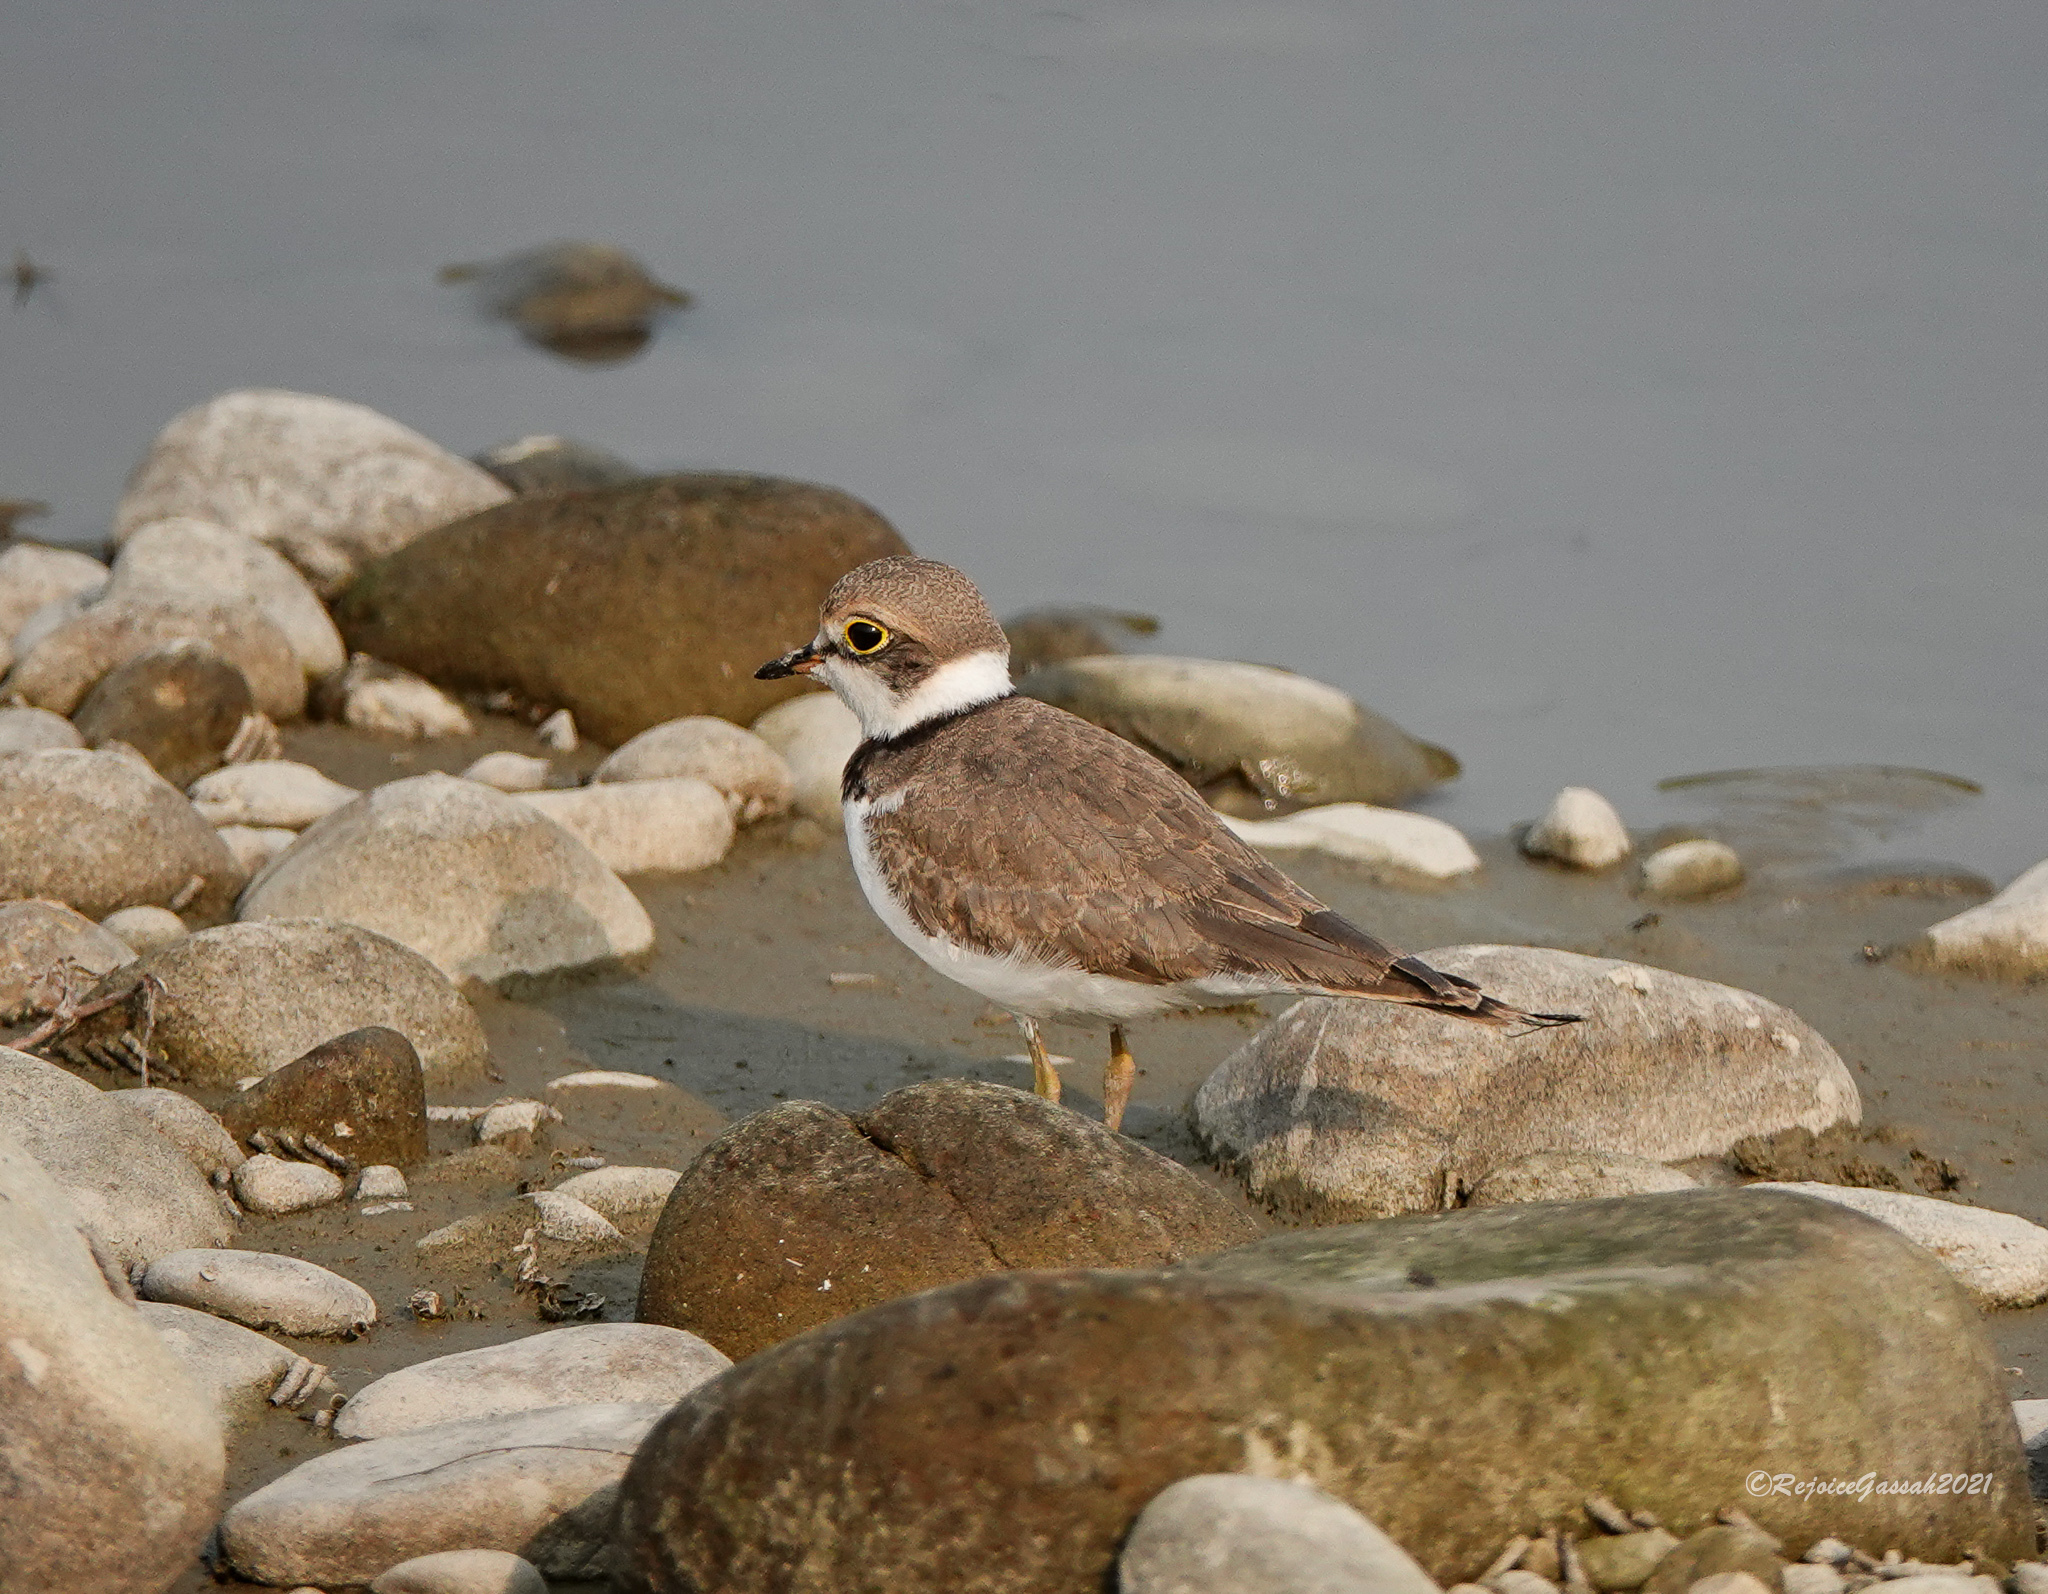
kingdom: Animalia
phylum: Chordata
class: Aves
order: Charadriiformes
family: Charadriidae
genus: Charadrius
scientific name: Charadrius dubius
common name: Little ringed plover
